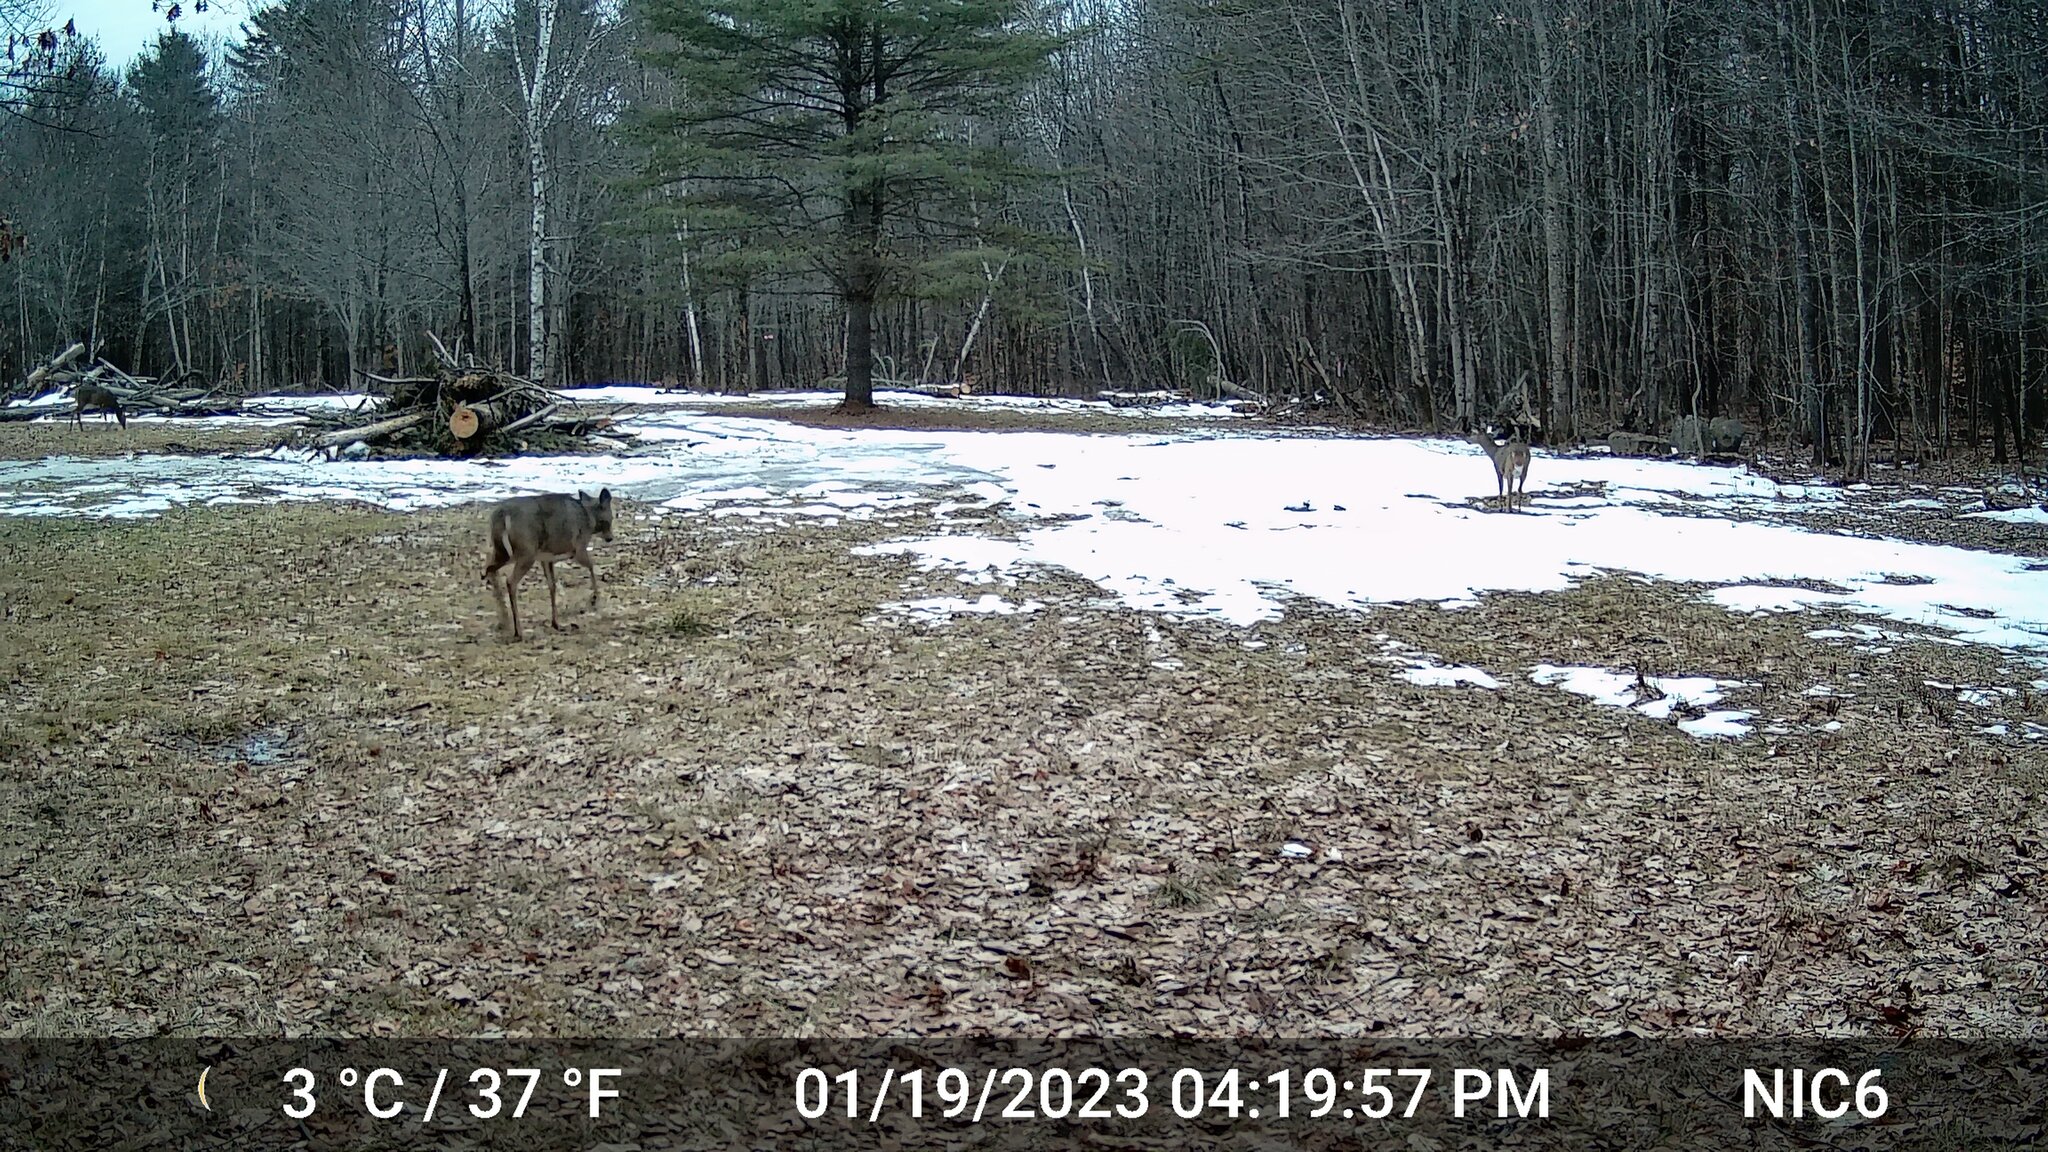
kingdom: Animalia
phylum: Chordata
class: Mammalia
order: Artiodactyla
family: Cervidae
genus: Odocoileus
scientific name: Odocoileus virginianus
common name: White-tailed deer
